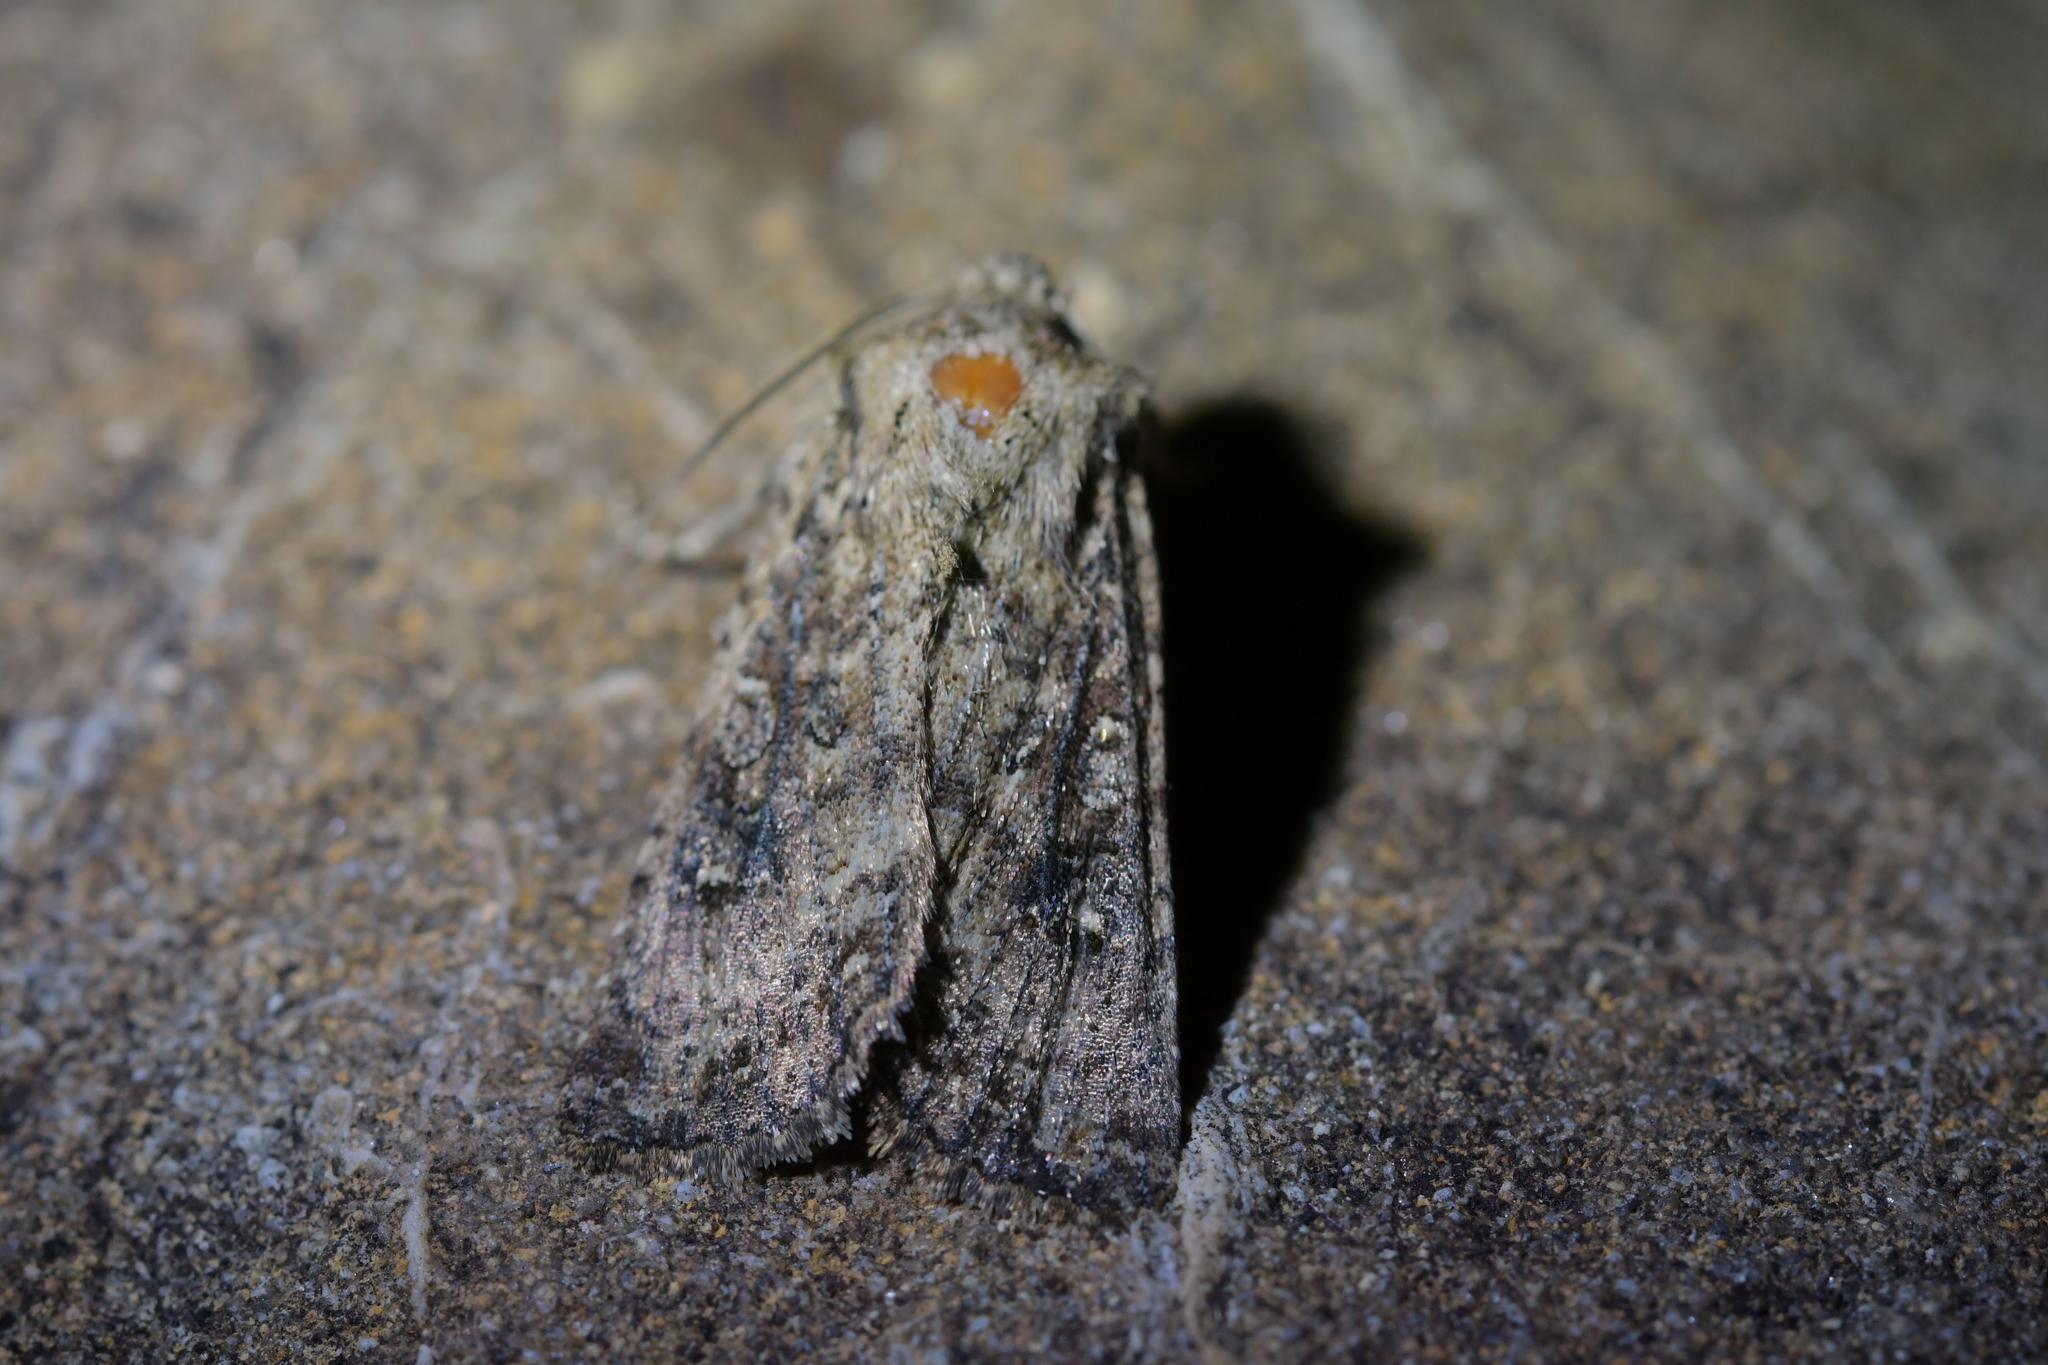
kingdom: Animalia
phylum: Arthropoda
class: Insecta
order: Lepidoptera
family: Noctuidae
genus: Ichneutica
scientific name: Ichneutica morosa
